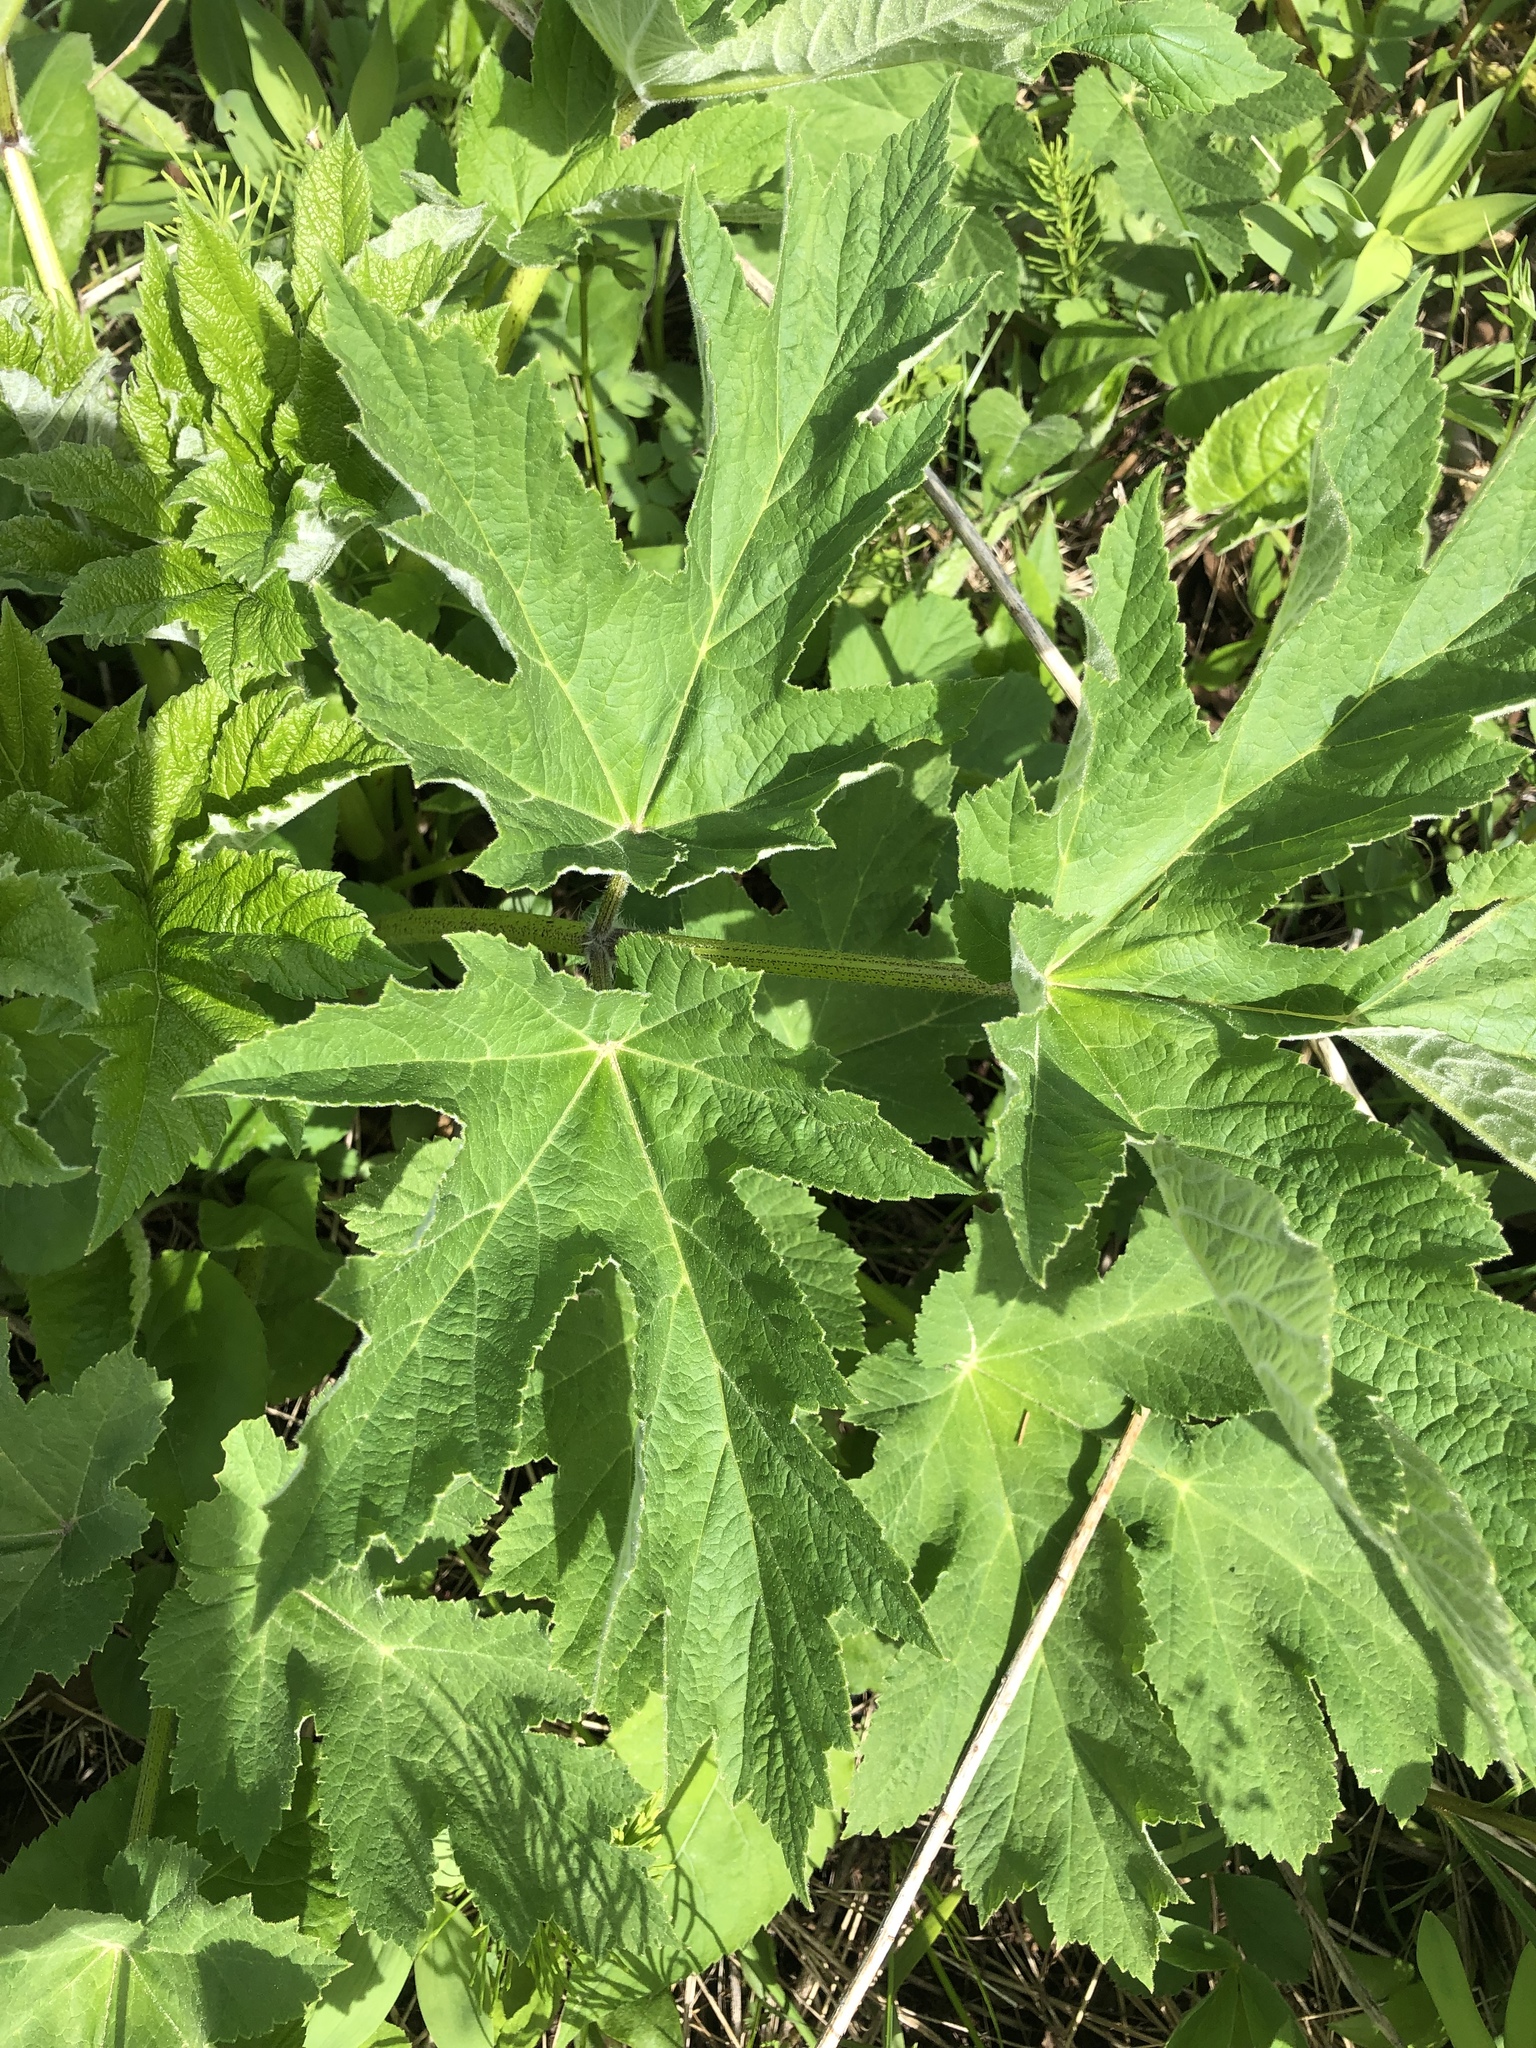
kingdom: Plantae
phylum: Tracheophyta
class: Magnoliopsida
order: Apiales
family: Apiaceae
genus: Heracleum
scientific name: Heracleum maximum
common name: American cow parsnip
